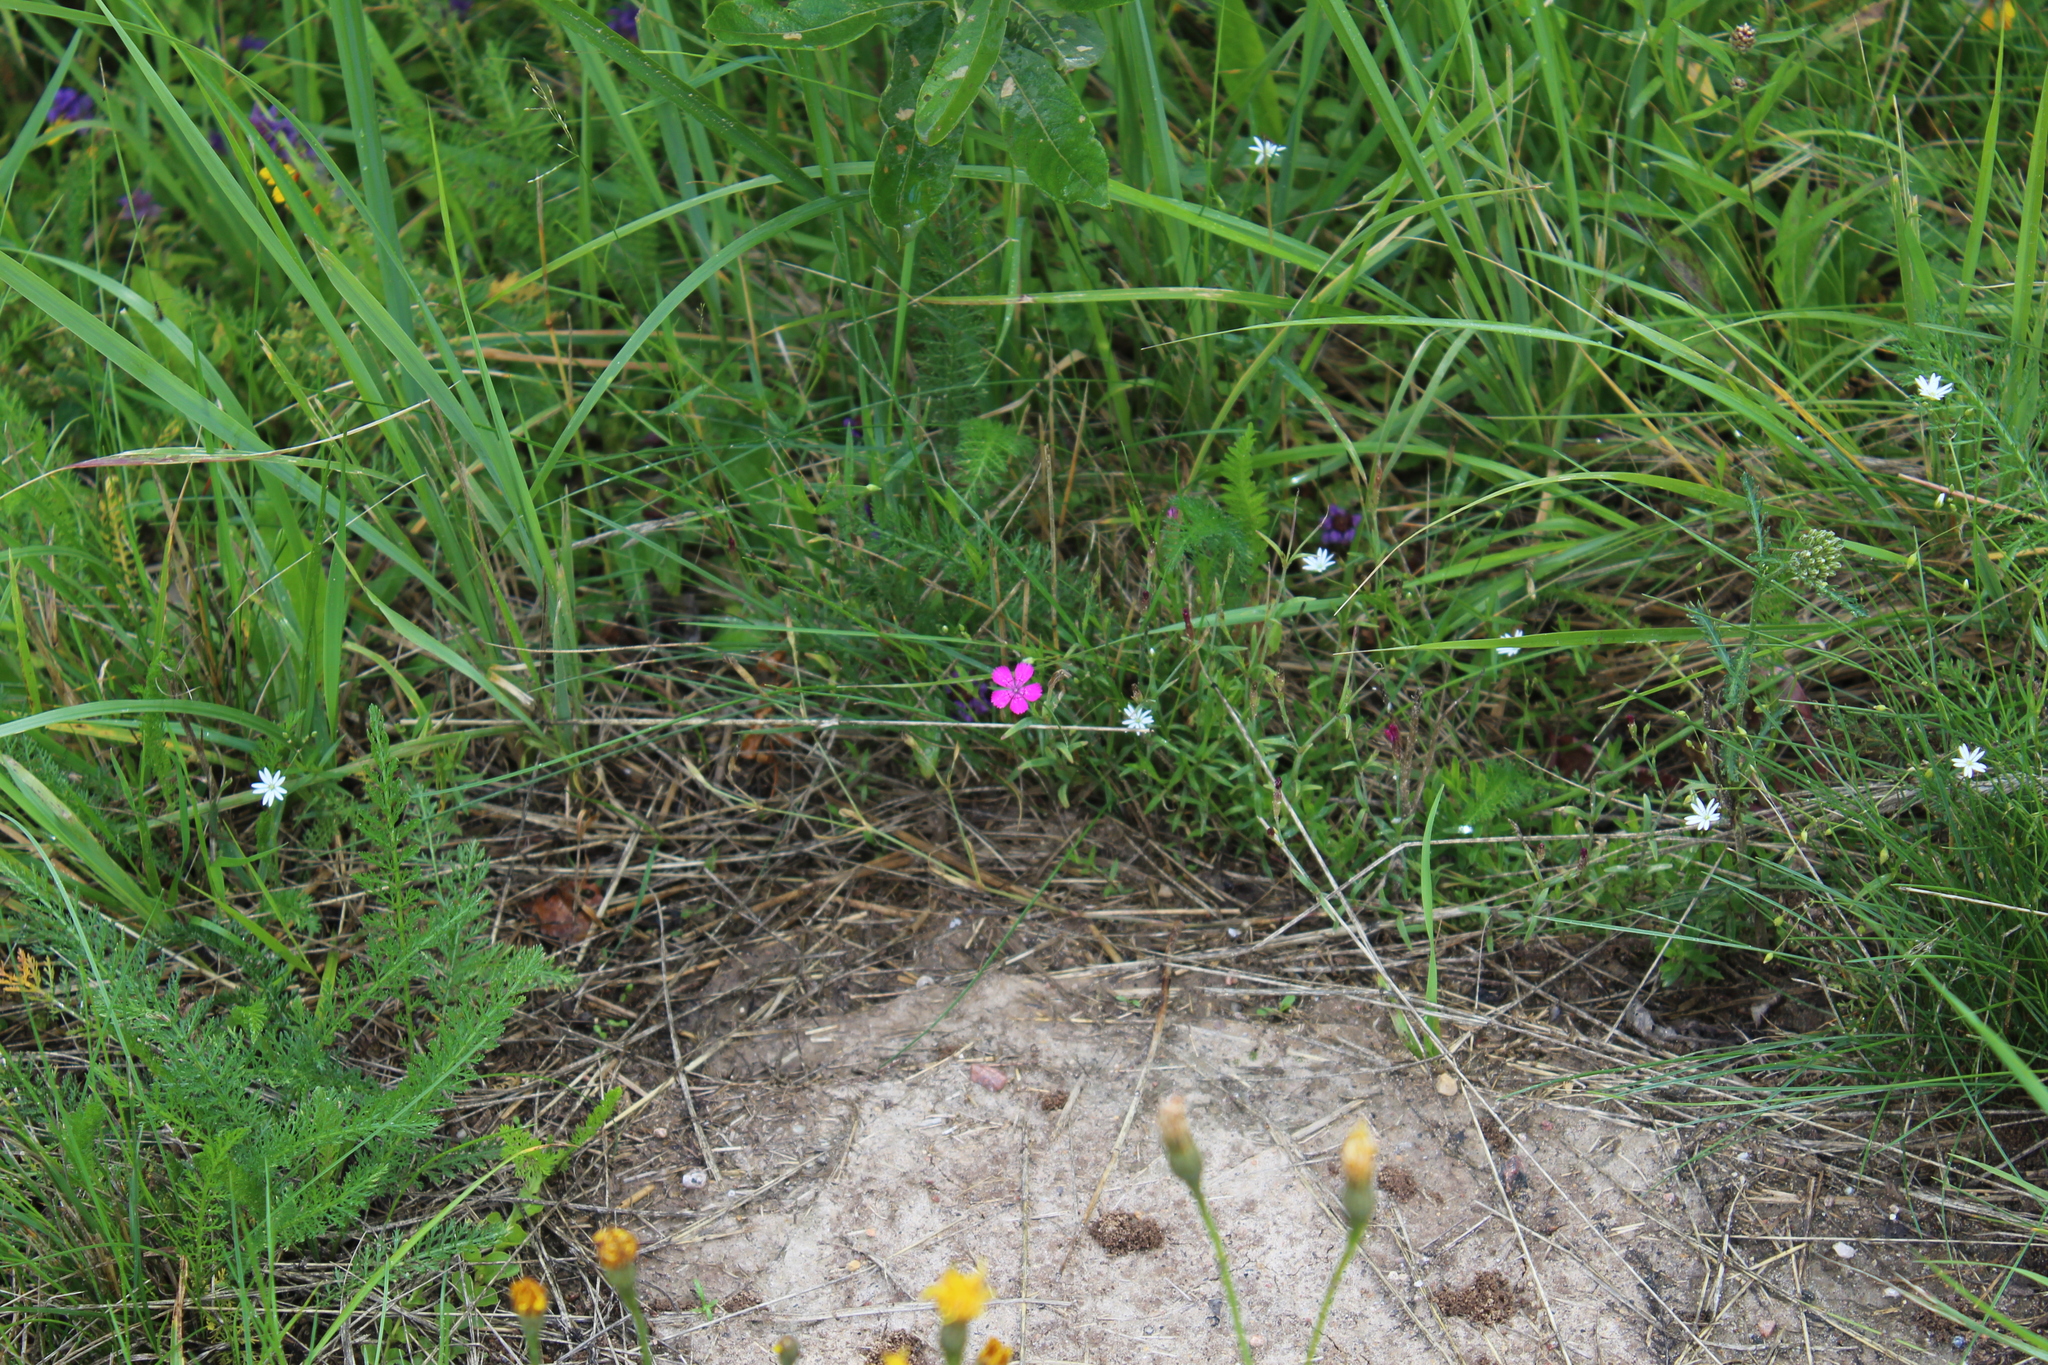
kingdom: Plantae
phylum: Tracheophyta
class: Magnoliopsida
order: Caryophyllales
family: Caryophyllaceae
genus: Dianthus
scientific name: Dianthus deltoides
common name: Maiden pink
